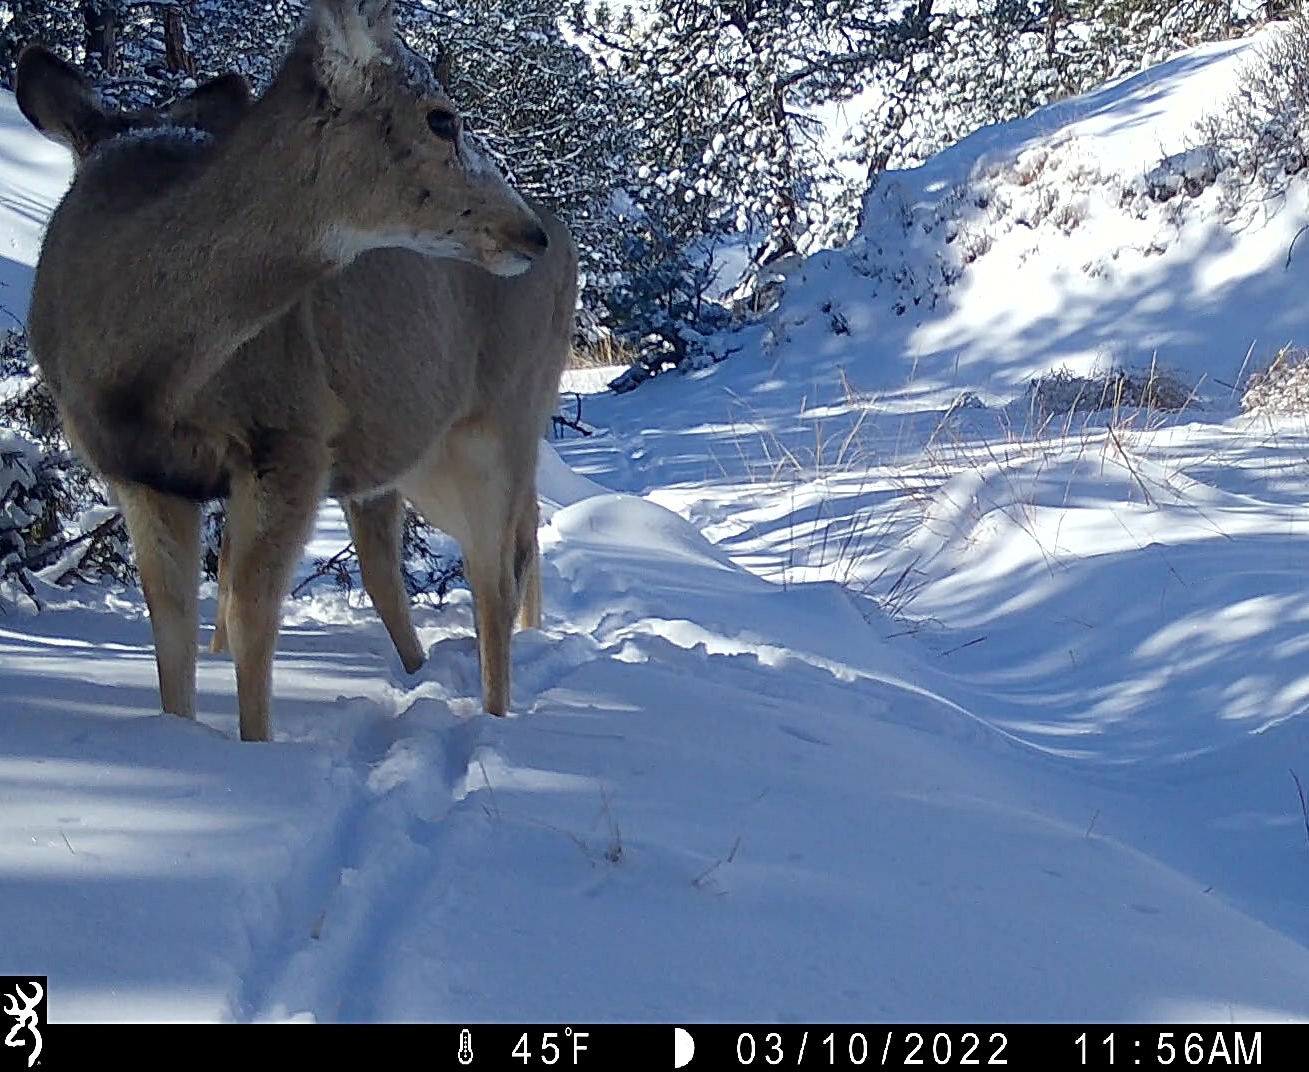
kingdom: Animalia
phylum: Chordata
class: Mammalia
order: Artiodactyla
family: Cervidae
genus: Odocoileus
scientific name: Odocoileus hemionus
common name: Mule deer
